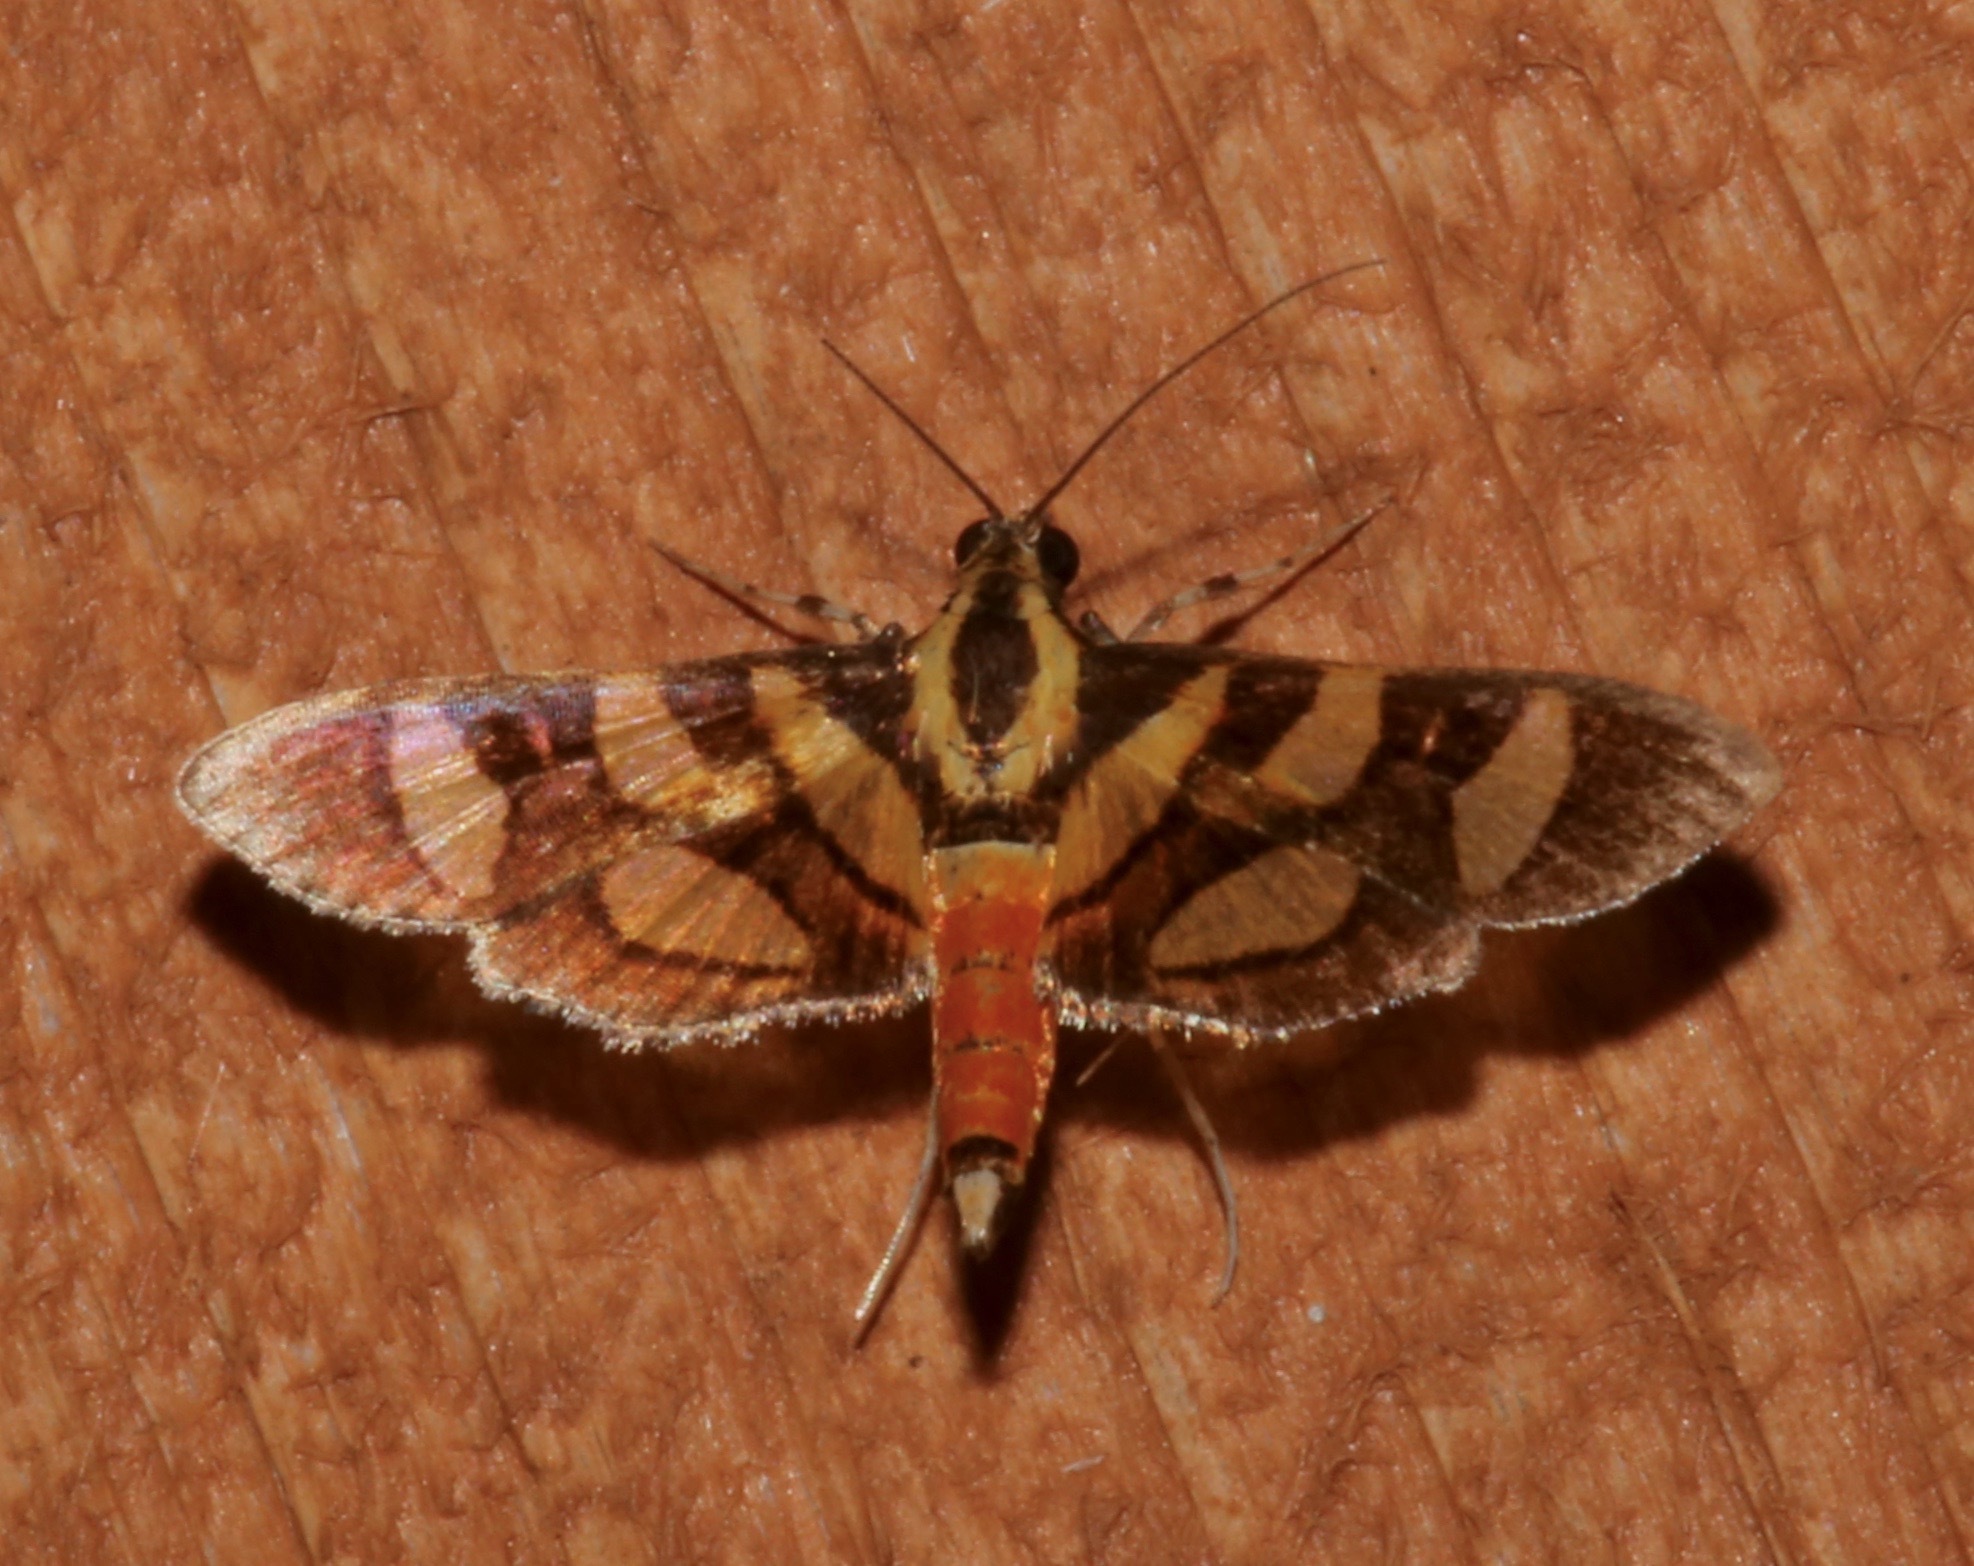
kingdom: Animalia
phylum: Arthropoda
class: Insecta
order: Lepidoptera
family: Crambidae
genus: Syngamia
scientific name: Syngamia florella
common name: Orange-spotted flower moth
